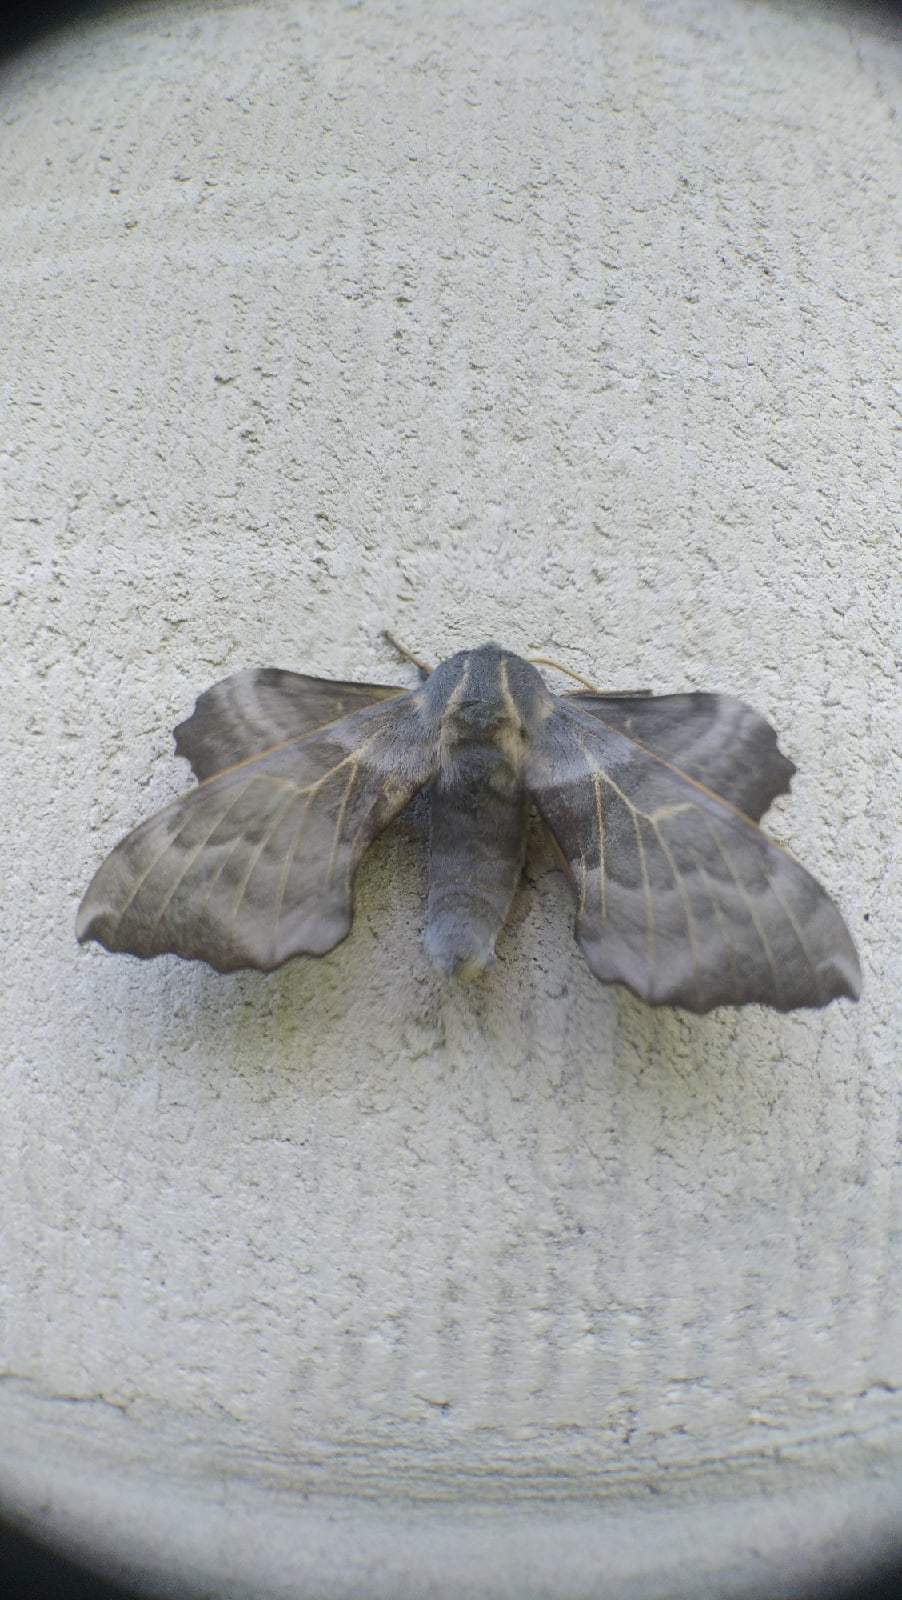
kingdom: Animalia
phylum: Arthropoda
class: Insecta
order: Lepidoptera
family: Sphingidae
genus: Laothoe
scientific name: Laothoe amurensis
